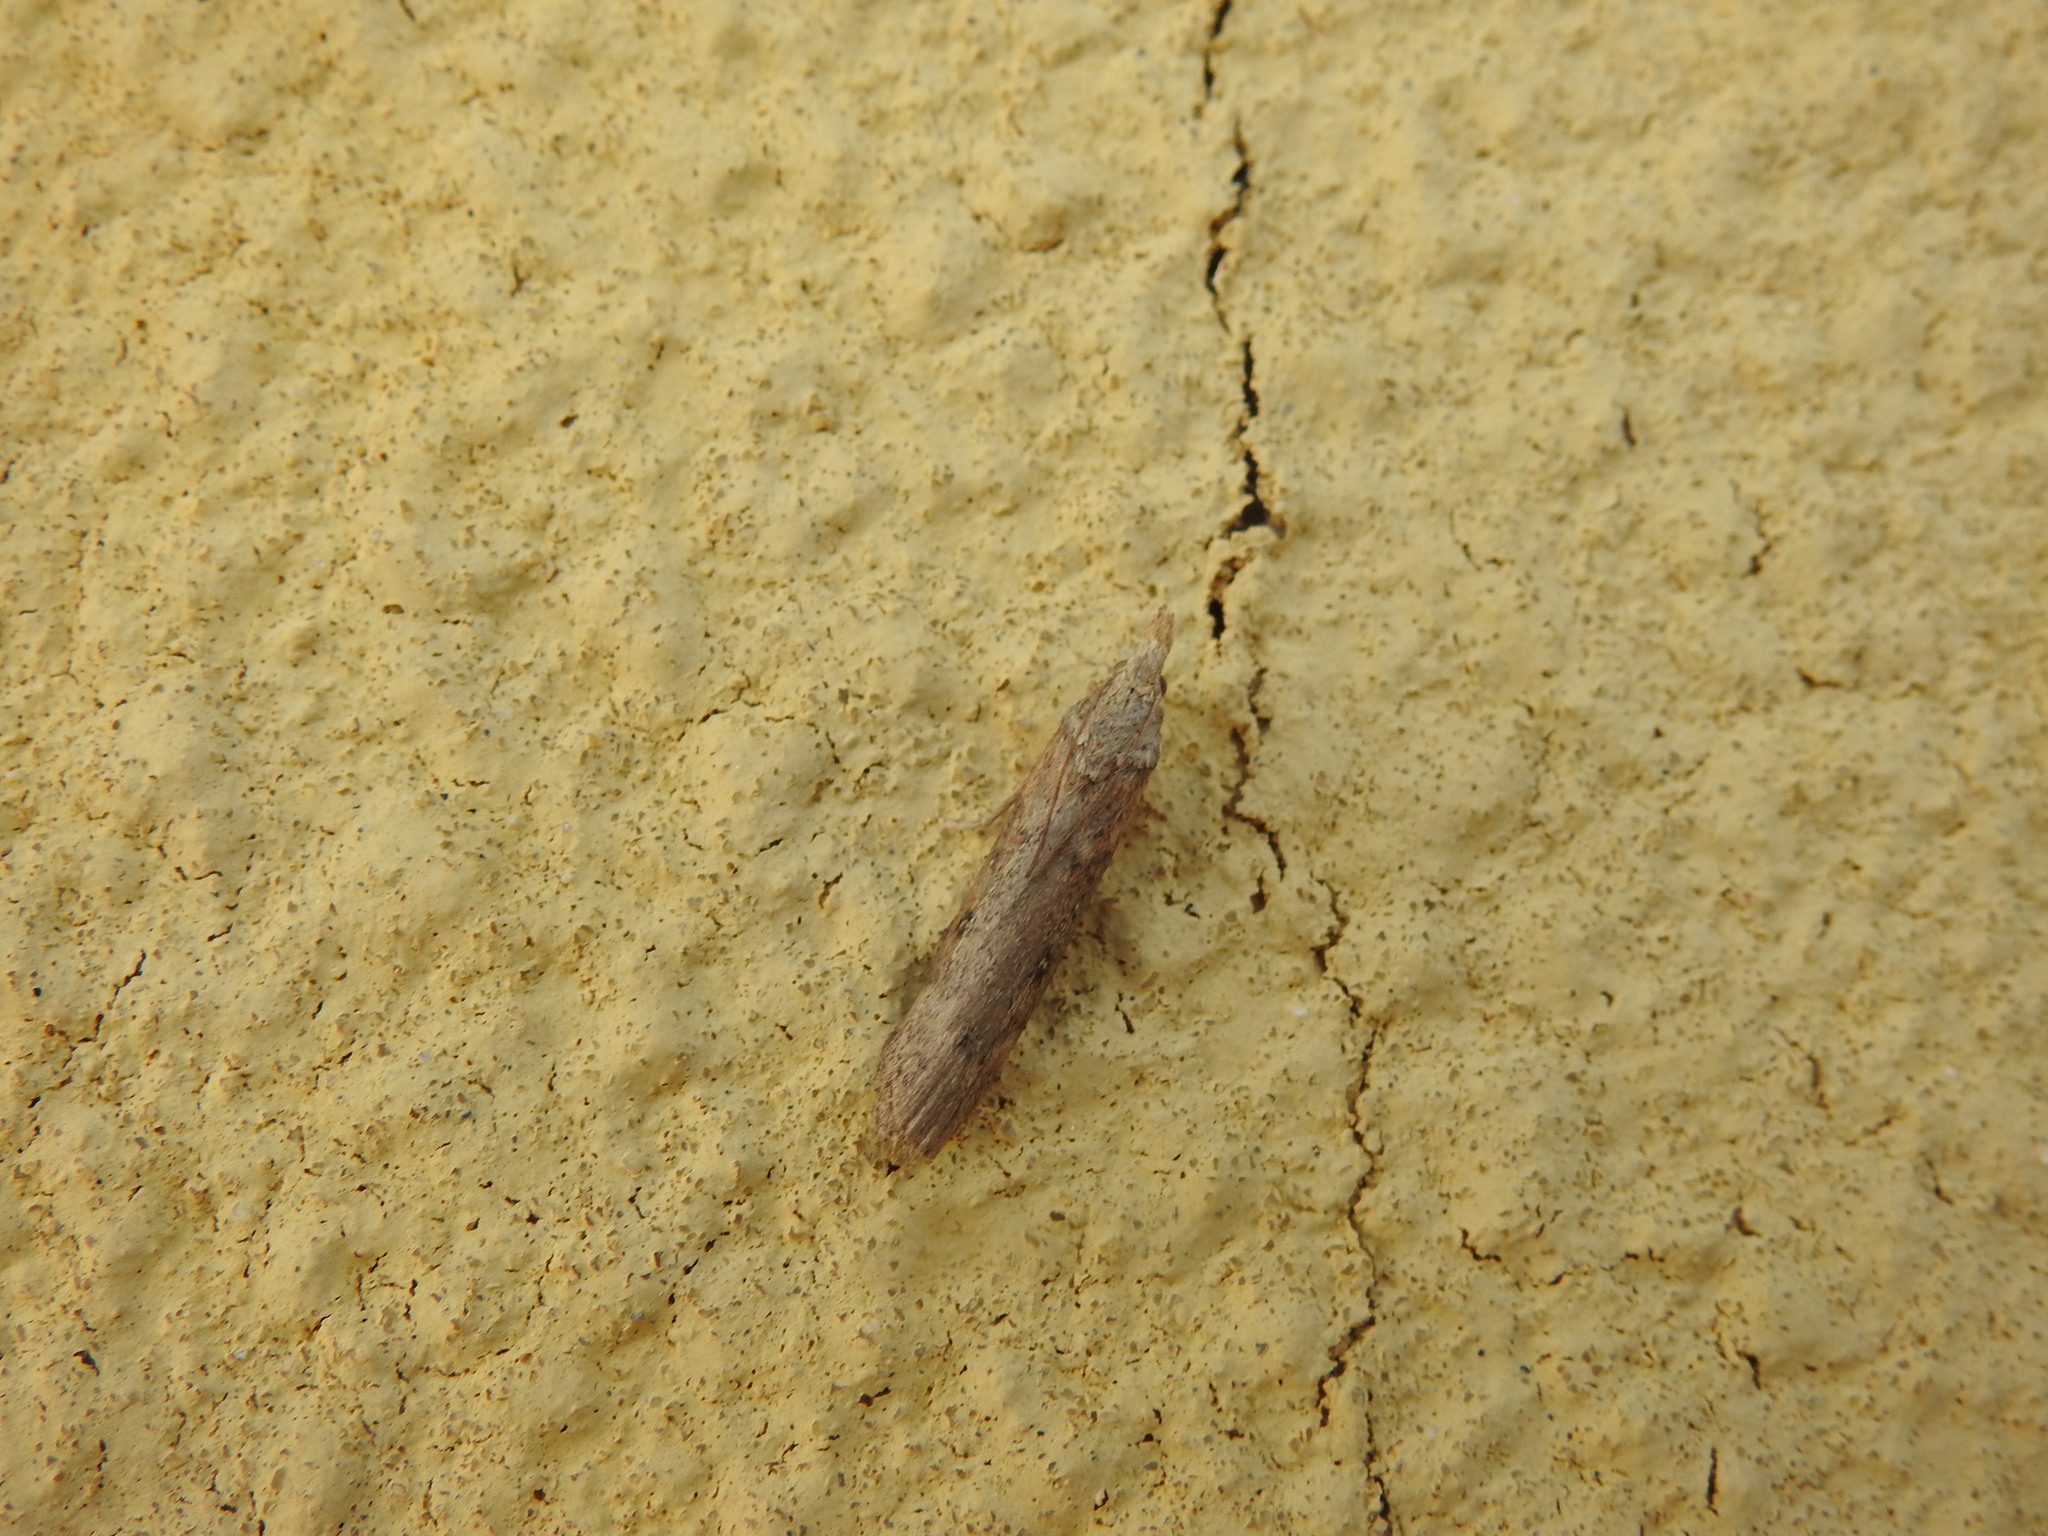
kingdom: Animalia
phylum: Arthropoda
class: Insecta
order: Lepidoptera
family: Pyralidae
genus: Lamoria
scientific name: Lamoria anella
